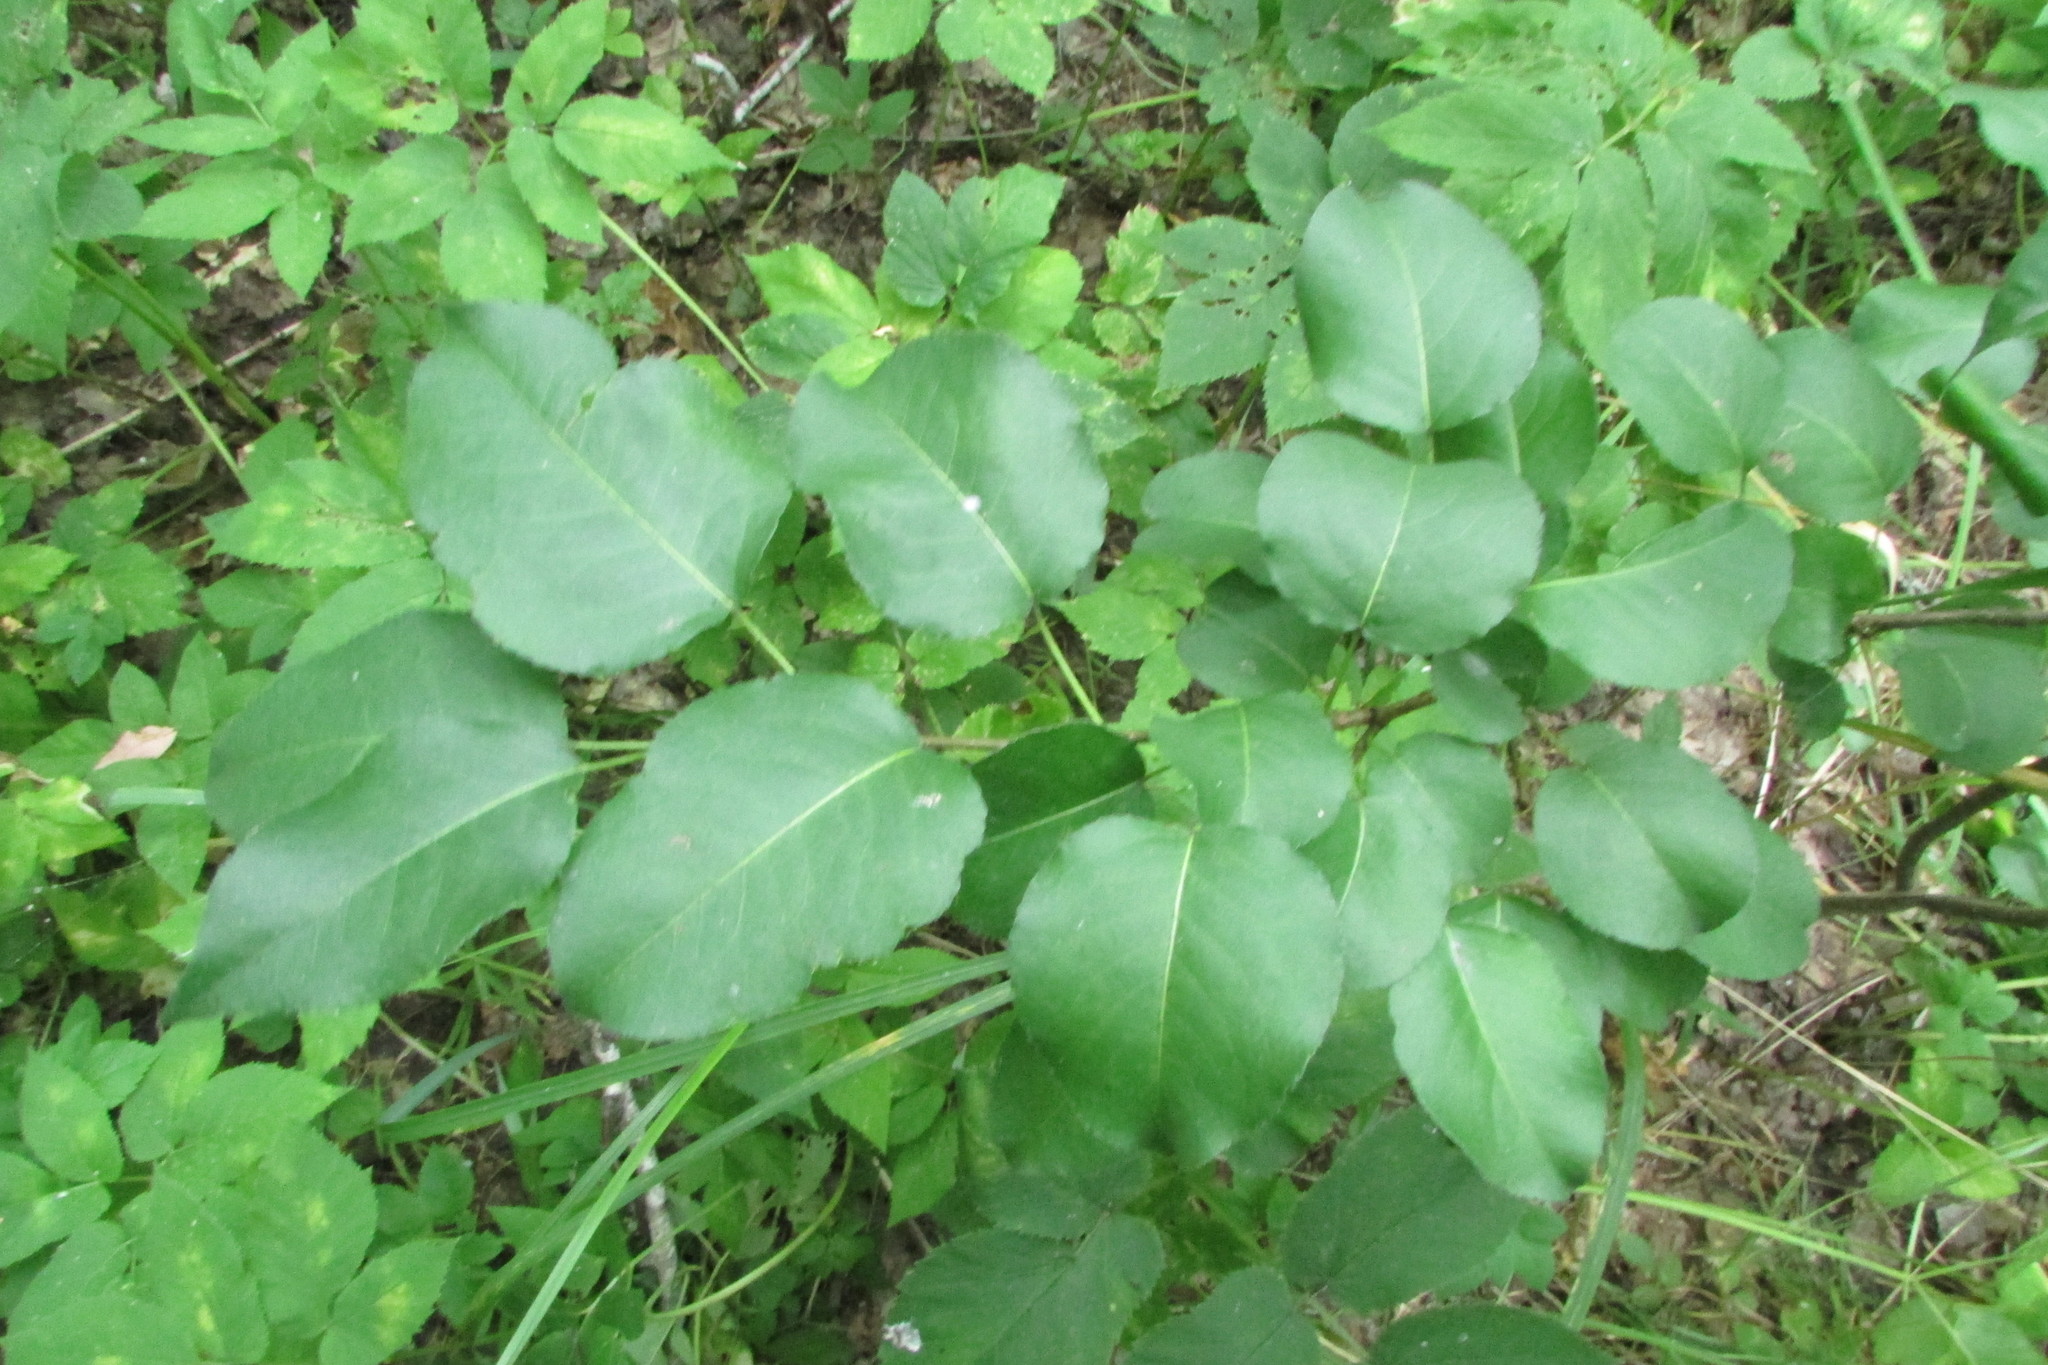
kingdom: Plantae
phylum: Tracheophyta
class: Magnoliopsida
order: Rosales
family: Rosaceae
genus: Pyrus
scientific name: Pyrus
